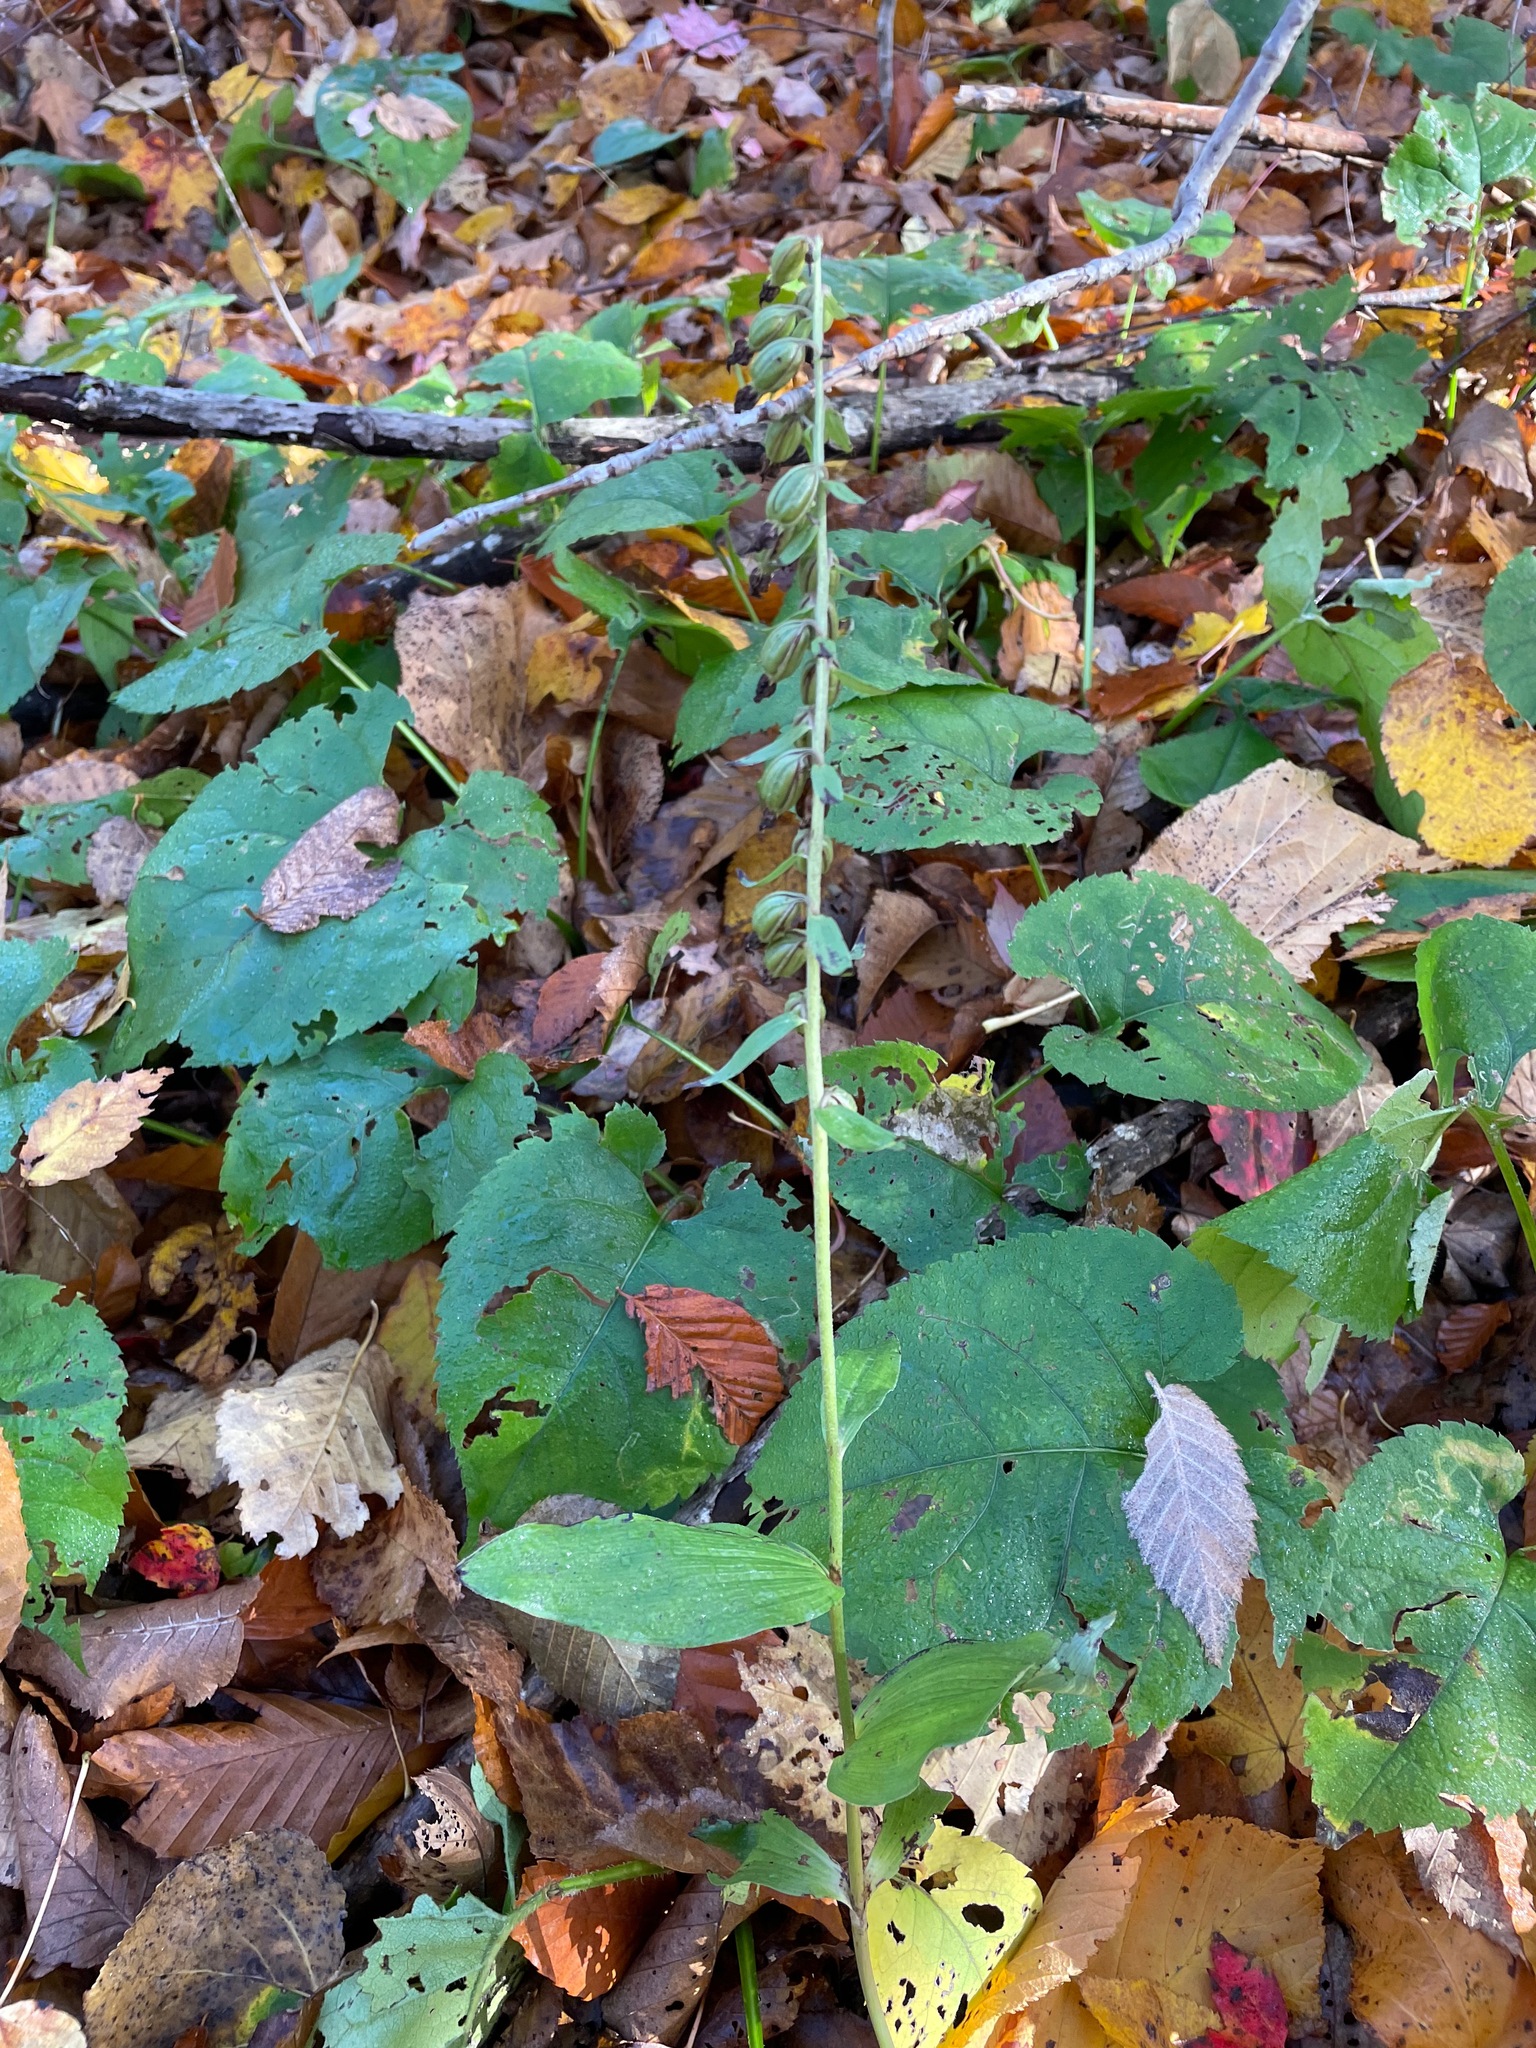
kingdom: Plantae
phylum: Tracheophyta
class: Liliopsida
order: Asparagales
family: Orchidaceae
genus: Epipactis
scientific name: Epipactis helleborine
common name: Broad-leaved helleborine
